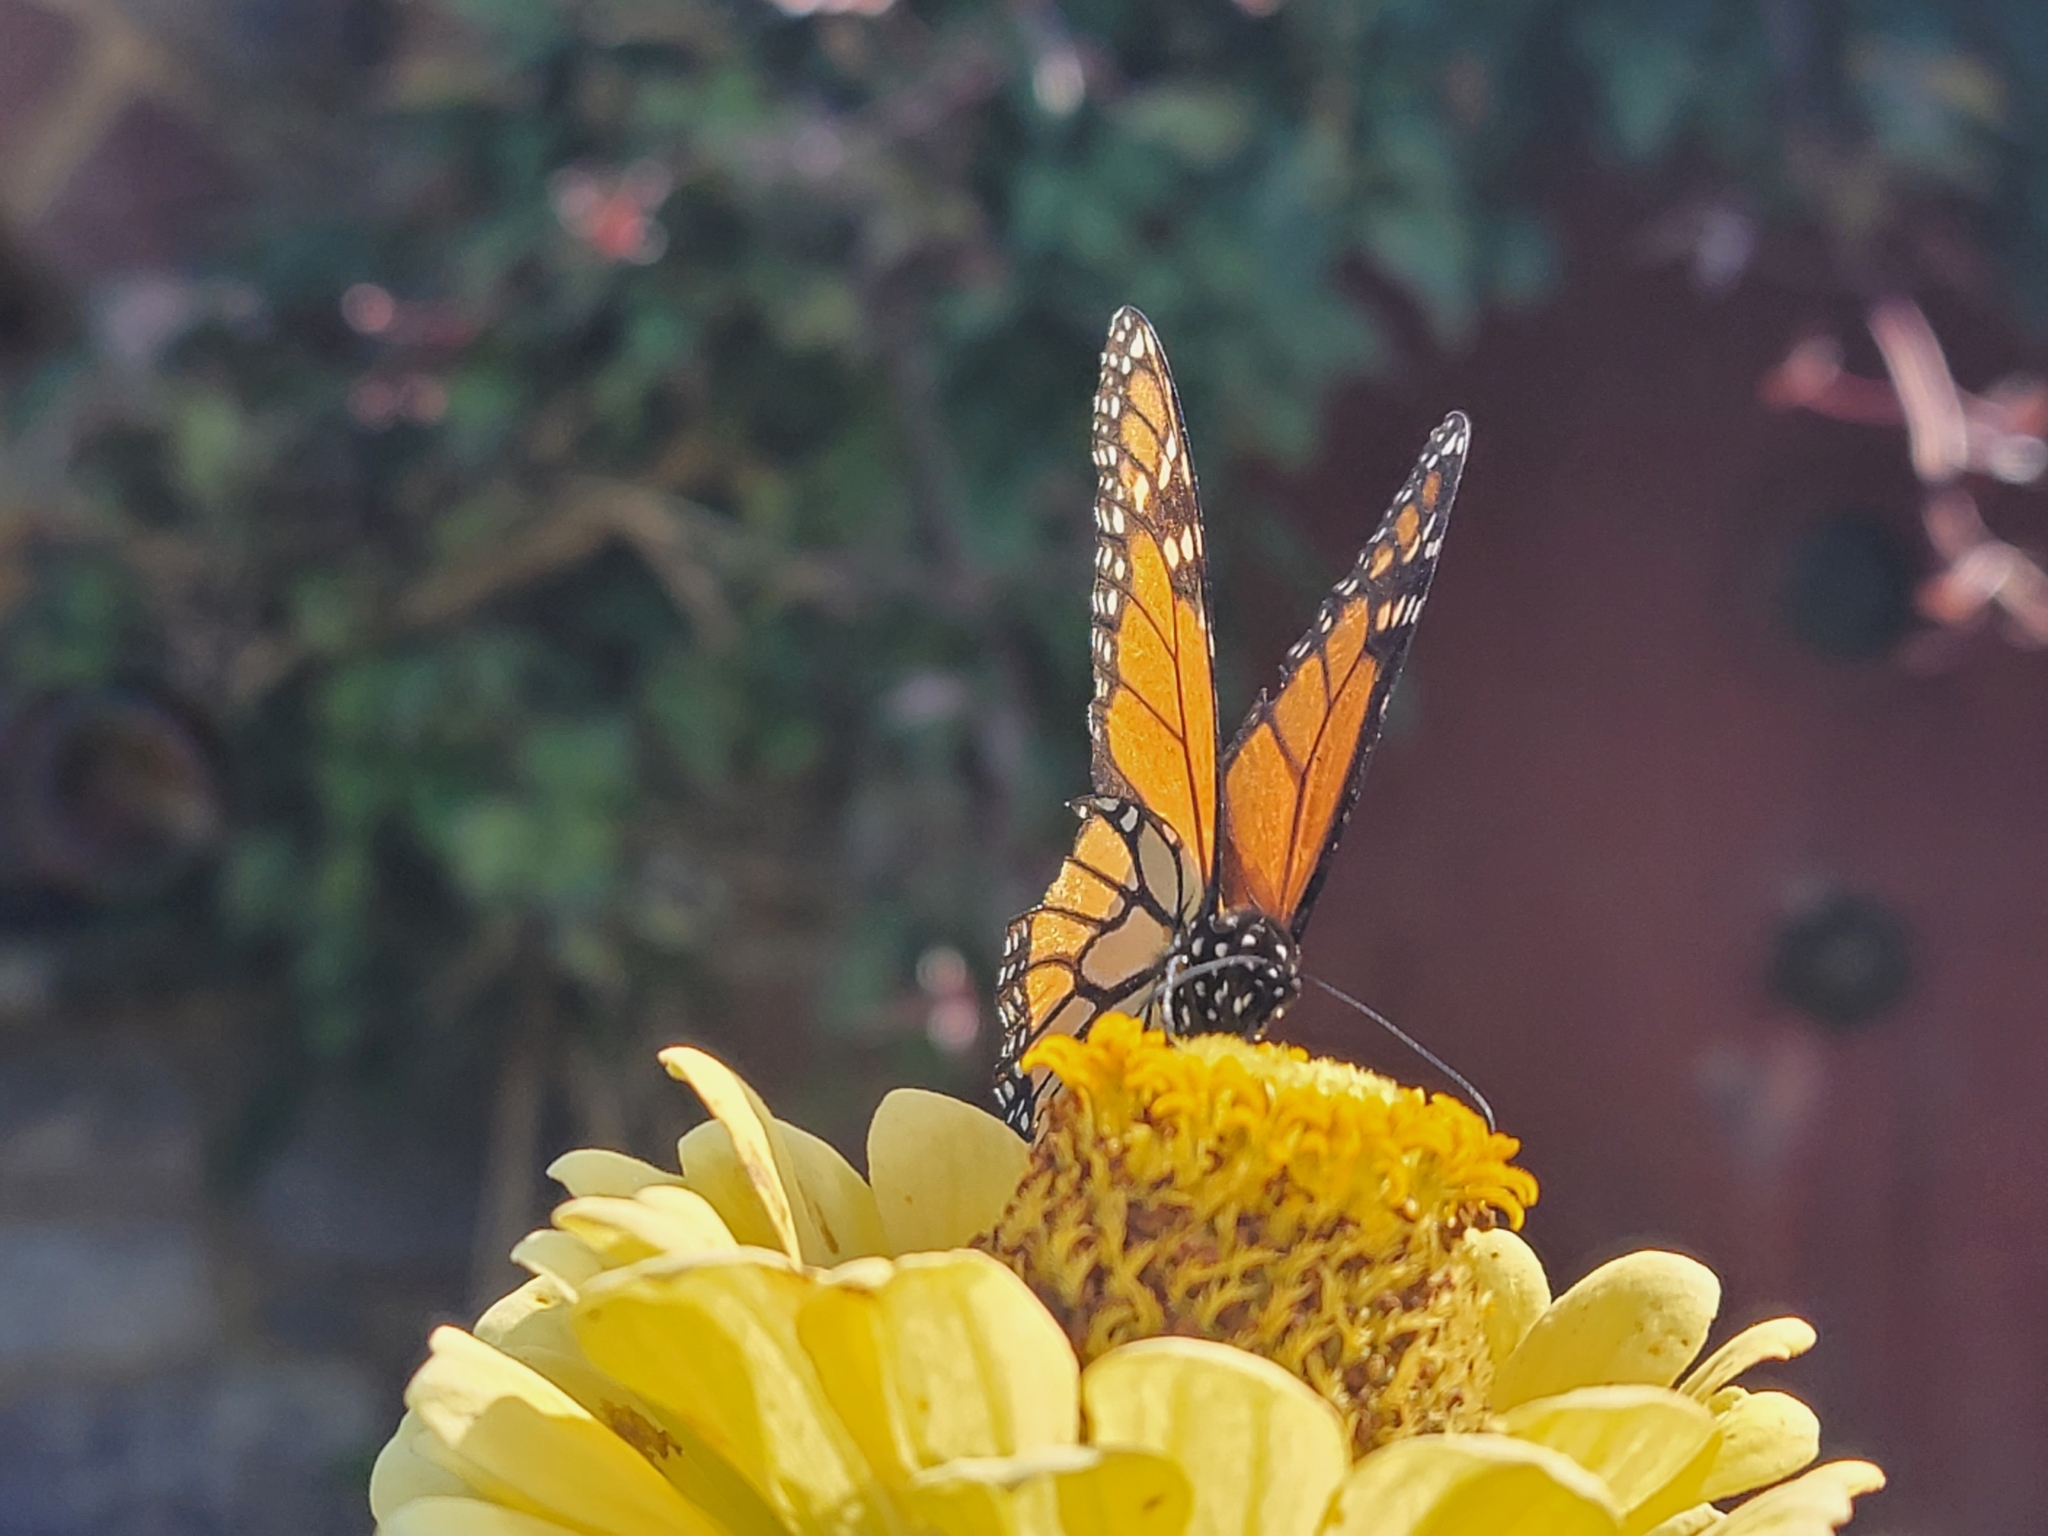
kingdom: Animalia
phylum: Arthropoda
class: Insecta
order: Lepidoptera
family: Nymphalidae
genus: Danaus
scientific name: Danaus plexippus
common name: Monarch
